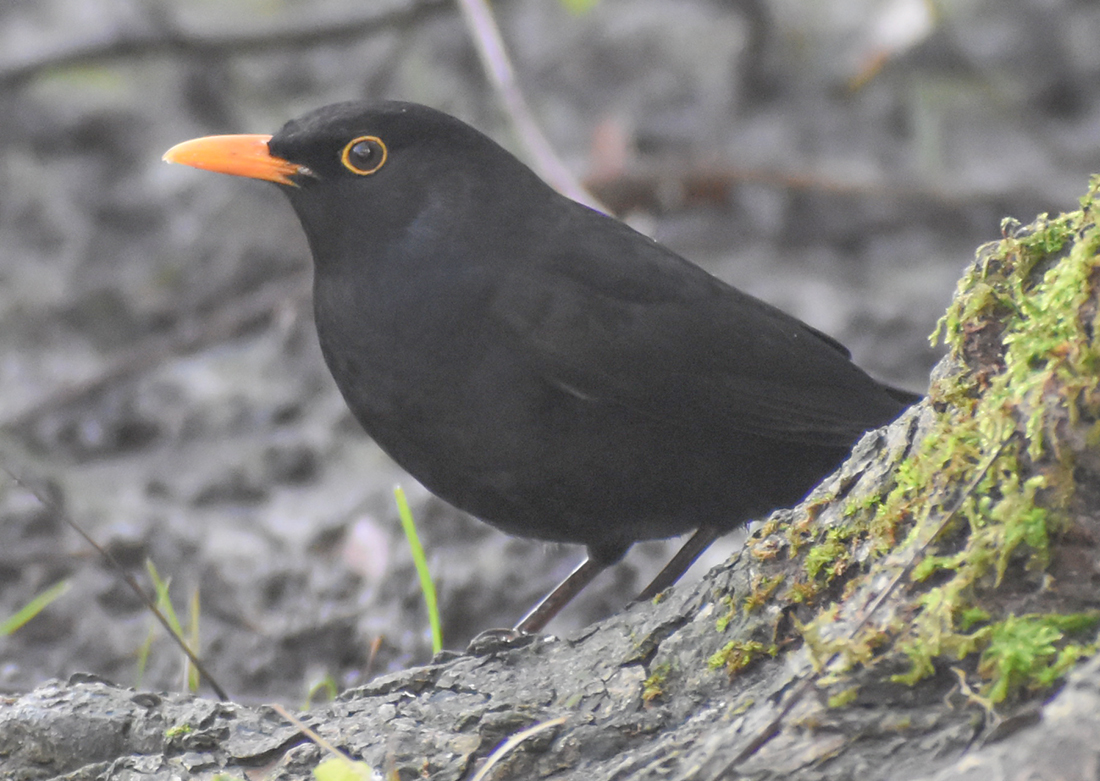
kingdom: Animalia
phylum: Chordata
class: Aves
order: Passeriformes
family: Turdidae
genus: Turdus
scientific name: Turdus merula
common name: Common blackbird
